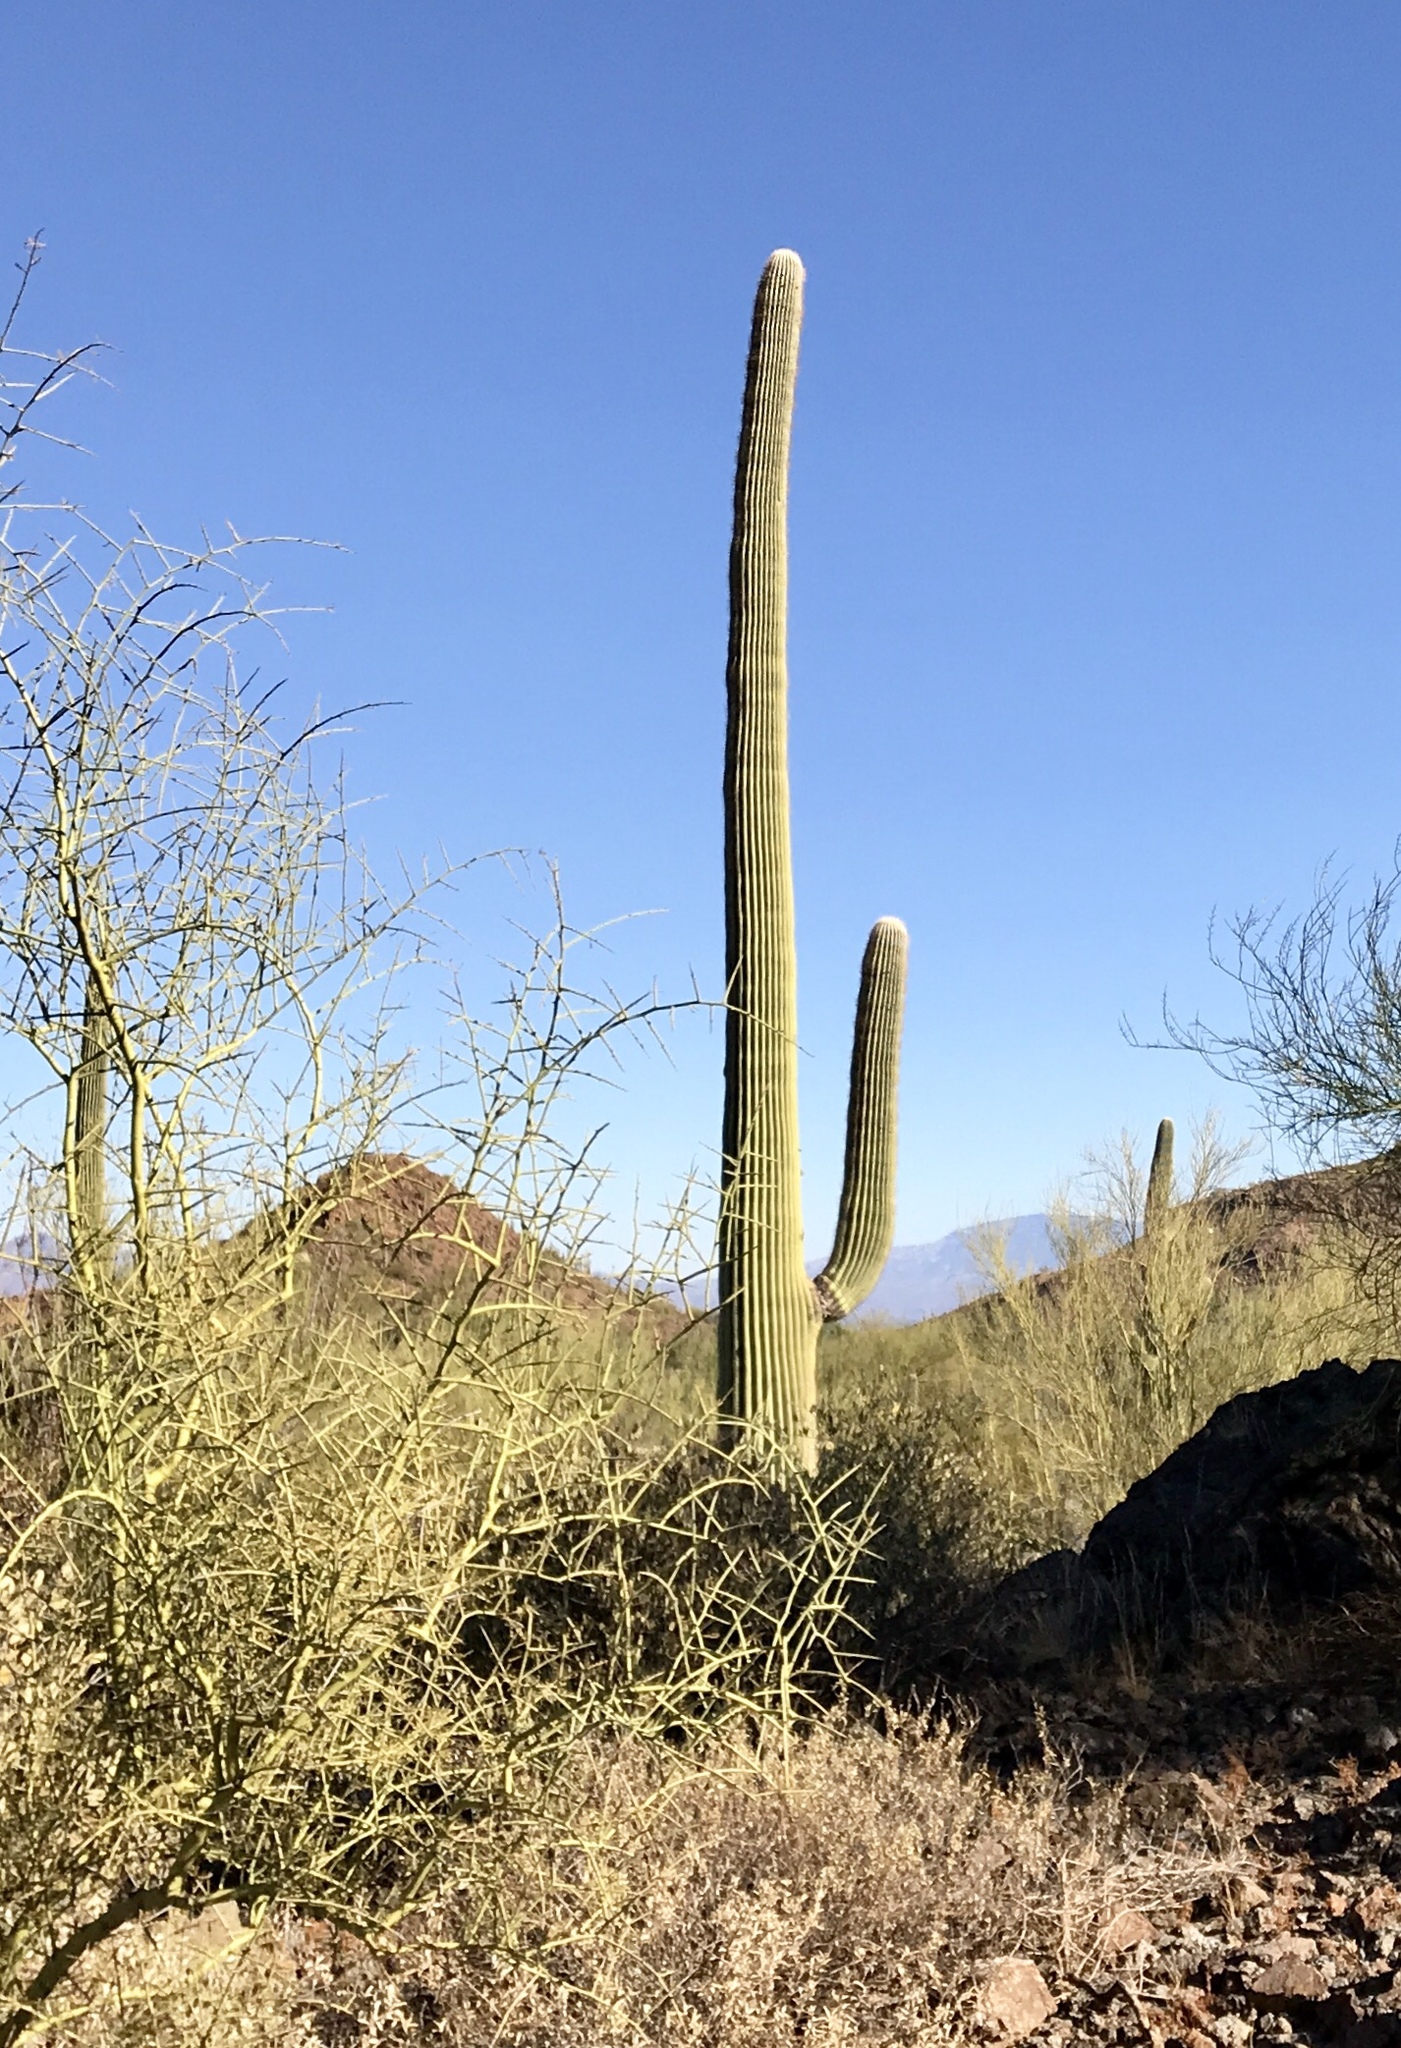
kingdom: Plantae
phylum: Tracheophyta
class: Magnoliopsida
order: Caryophyllales
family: Cactaceae
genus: Carnegiea
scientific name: Carnegiea gigantea
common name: Saguaro
